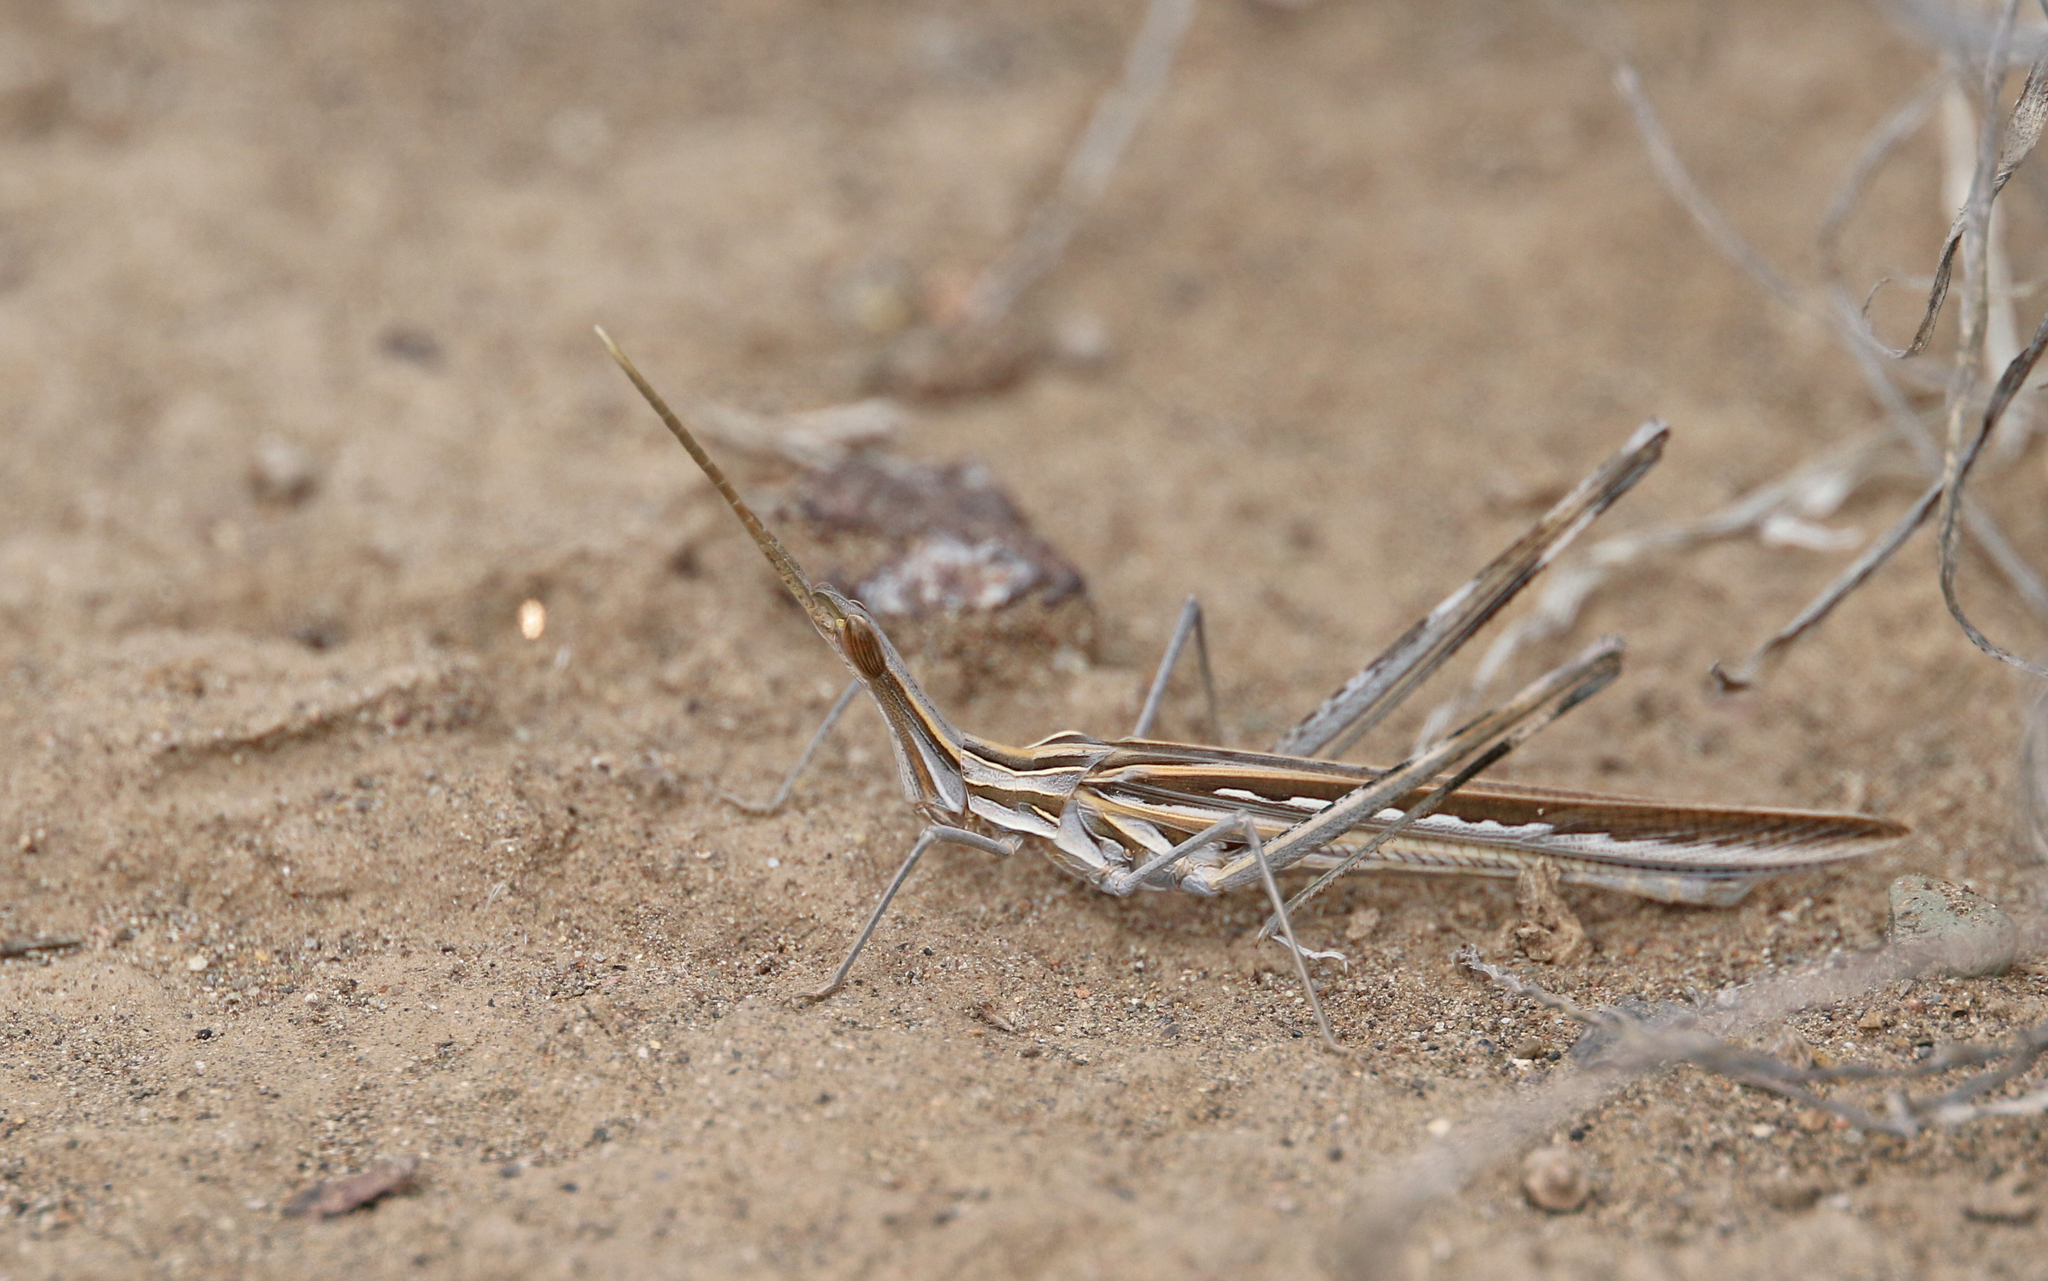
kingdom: Animalia
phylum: Arthropoda
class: Insecta
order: Orthoptera
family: Acrididae
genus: Truxalis
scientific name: Truxalis nasuta
